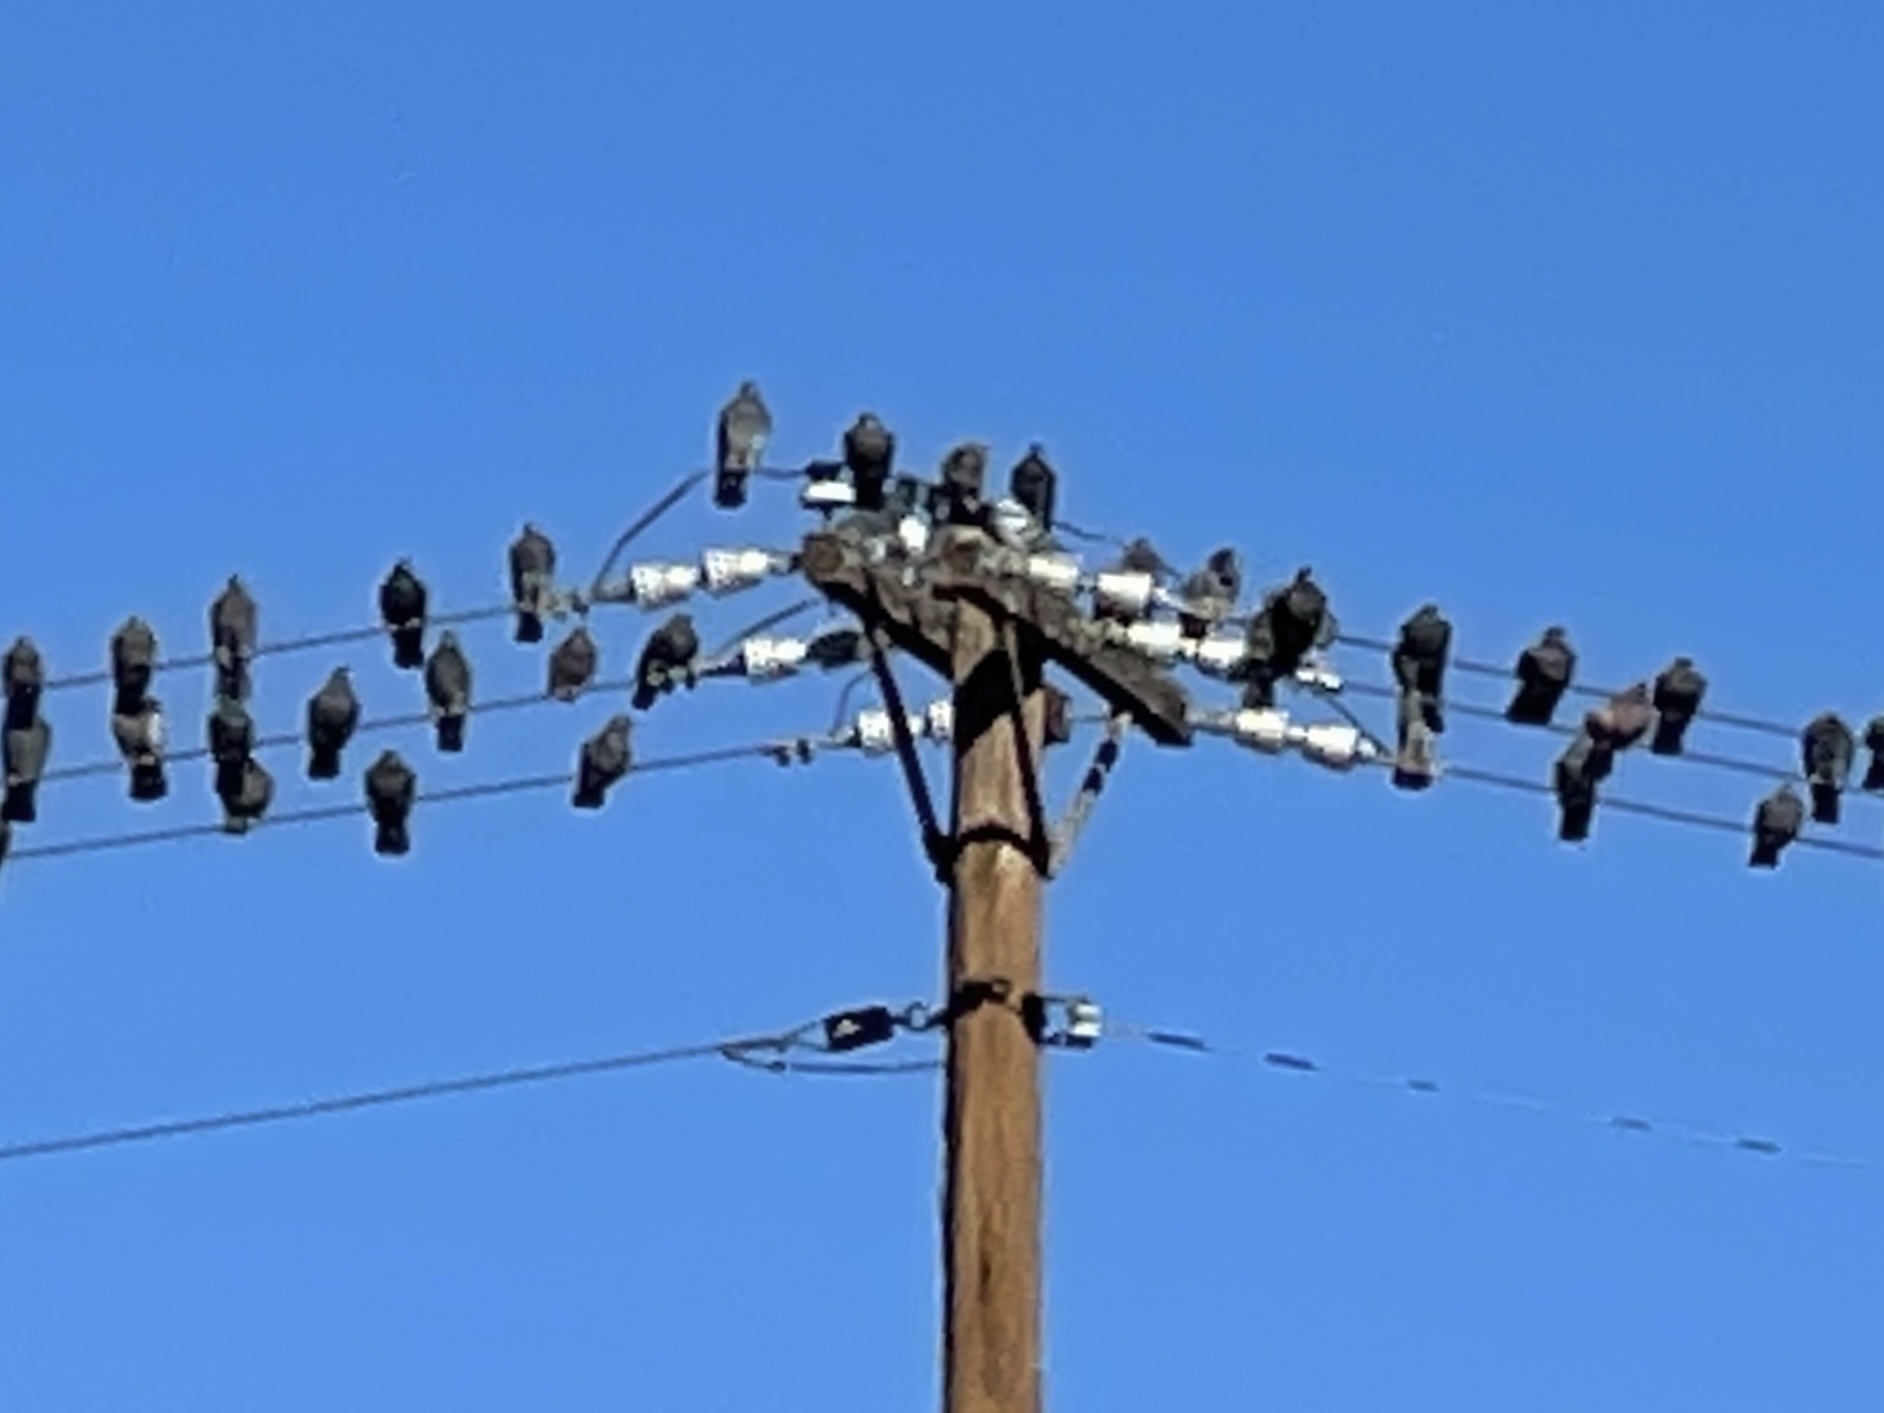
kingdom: Animalia
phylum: Chordata
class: Aves
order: Columbiformes
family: Columbidae
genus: Columba
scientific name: Columba livia
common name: Rock pigeon
